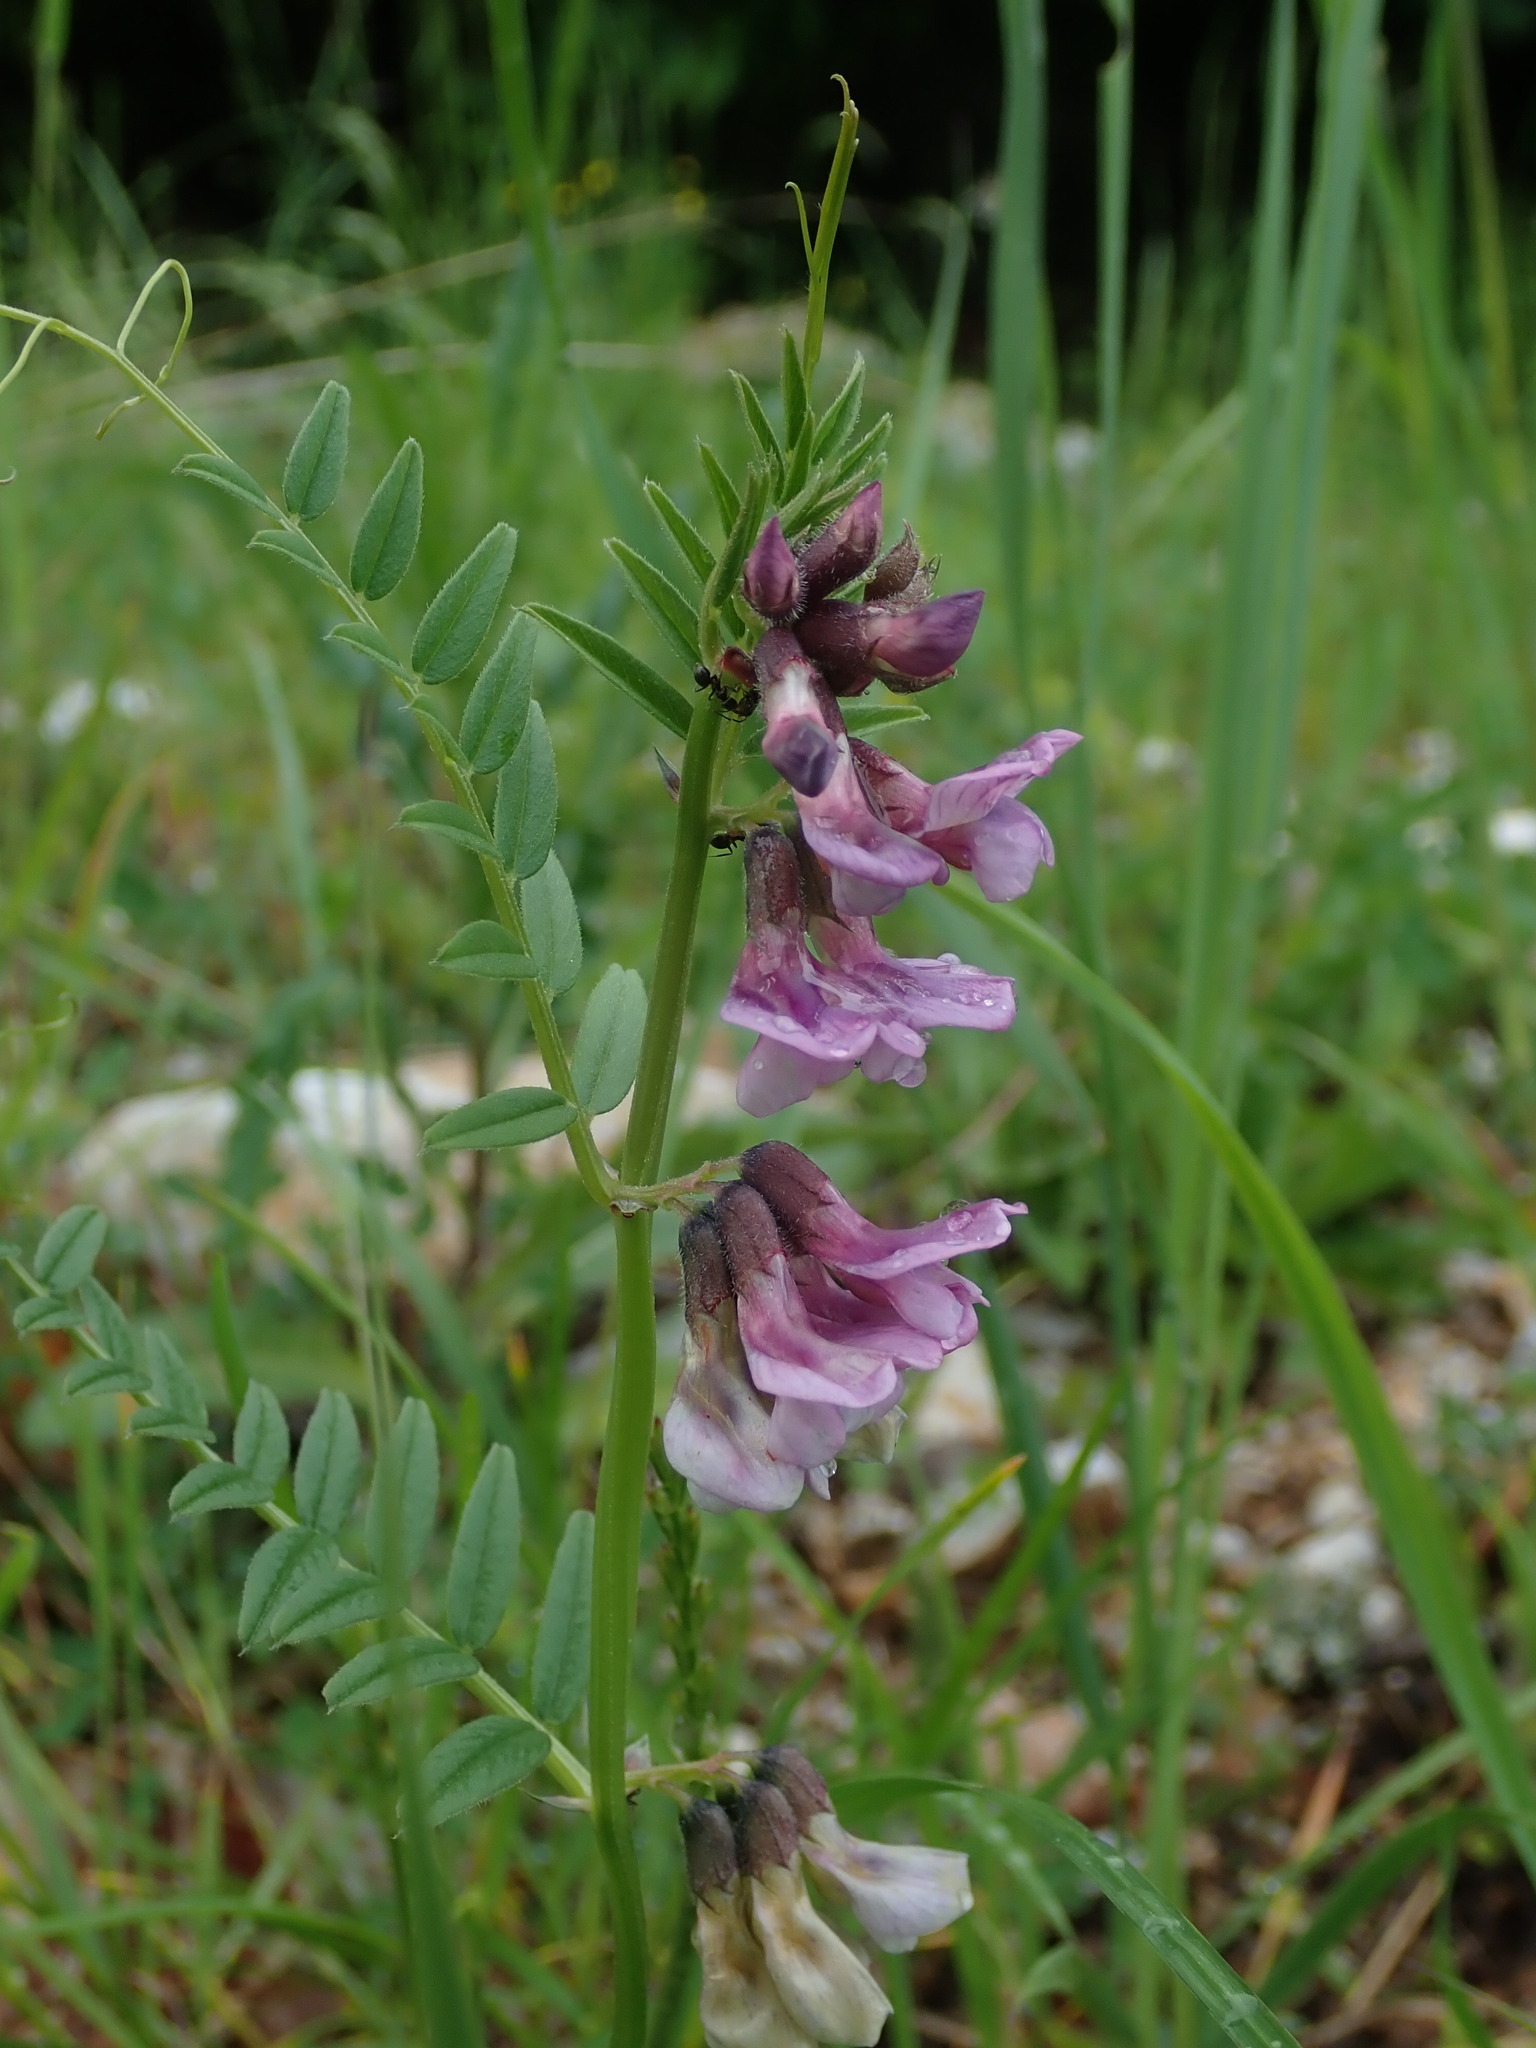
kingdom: Plantae
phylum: Tracheophyta
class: Magnoliopsida
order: Fabales
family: Fabaceae
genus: Vicia
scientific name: Vicia sepium
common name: Bush vetch
